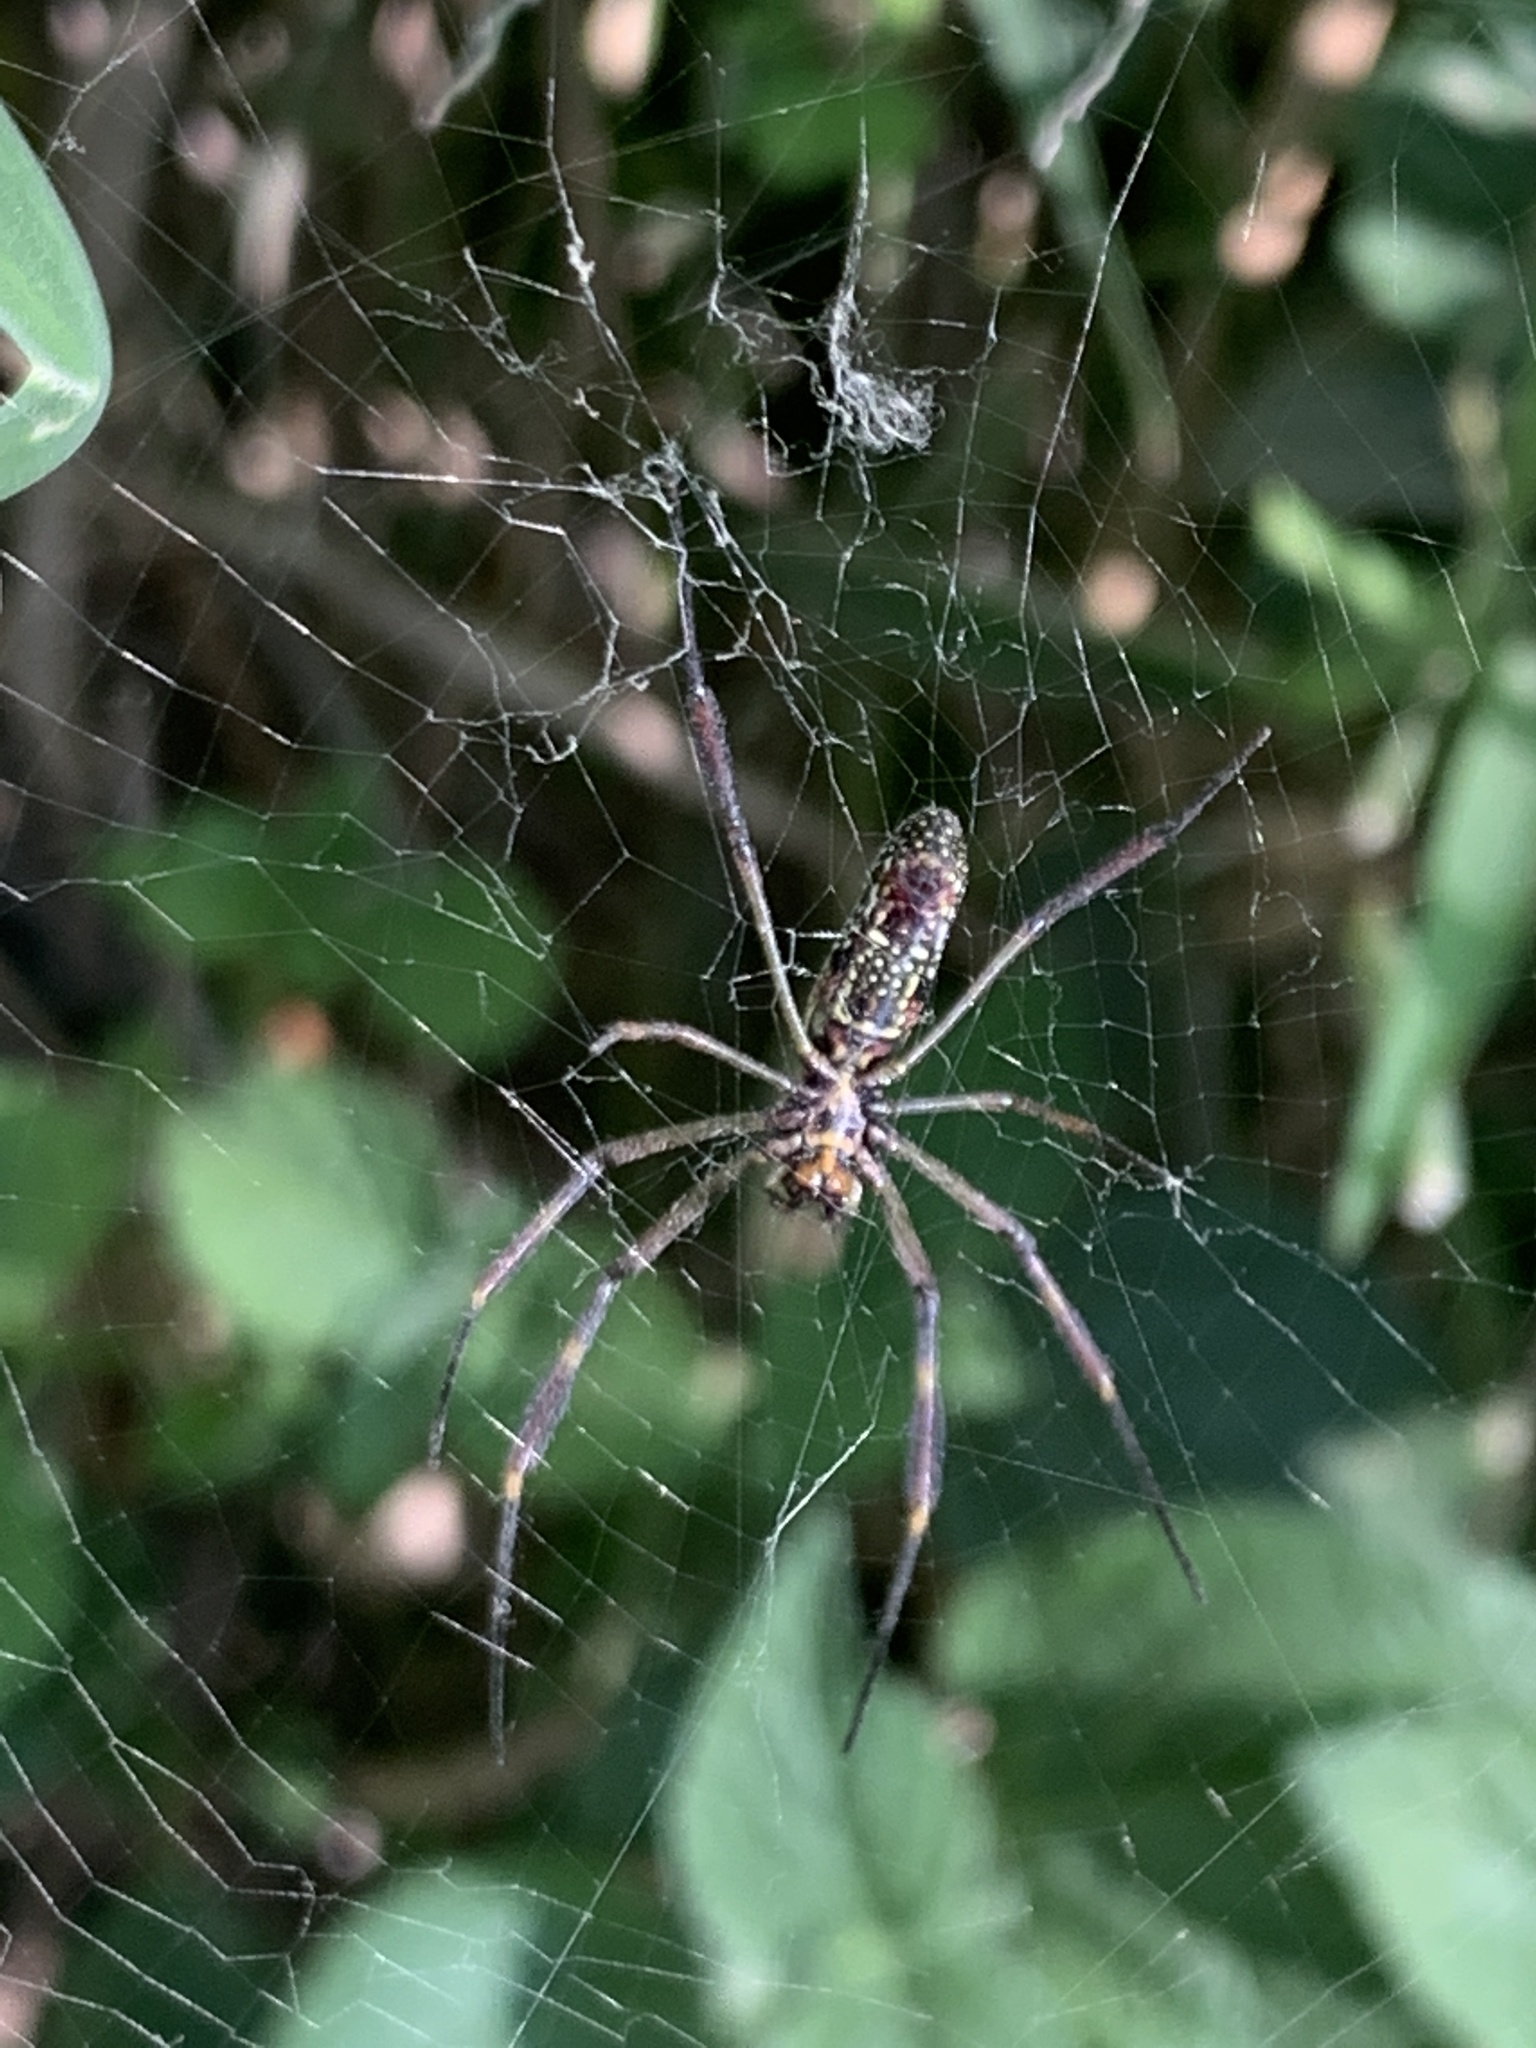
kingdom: Animalia
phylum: Arthropoda
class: Arachnida
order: Araneae
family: Araneidae
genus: Trichonephila
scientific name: Trichonephila clavipes
